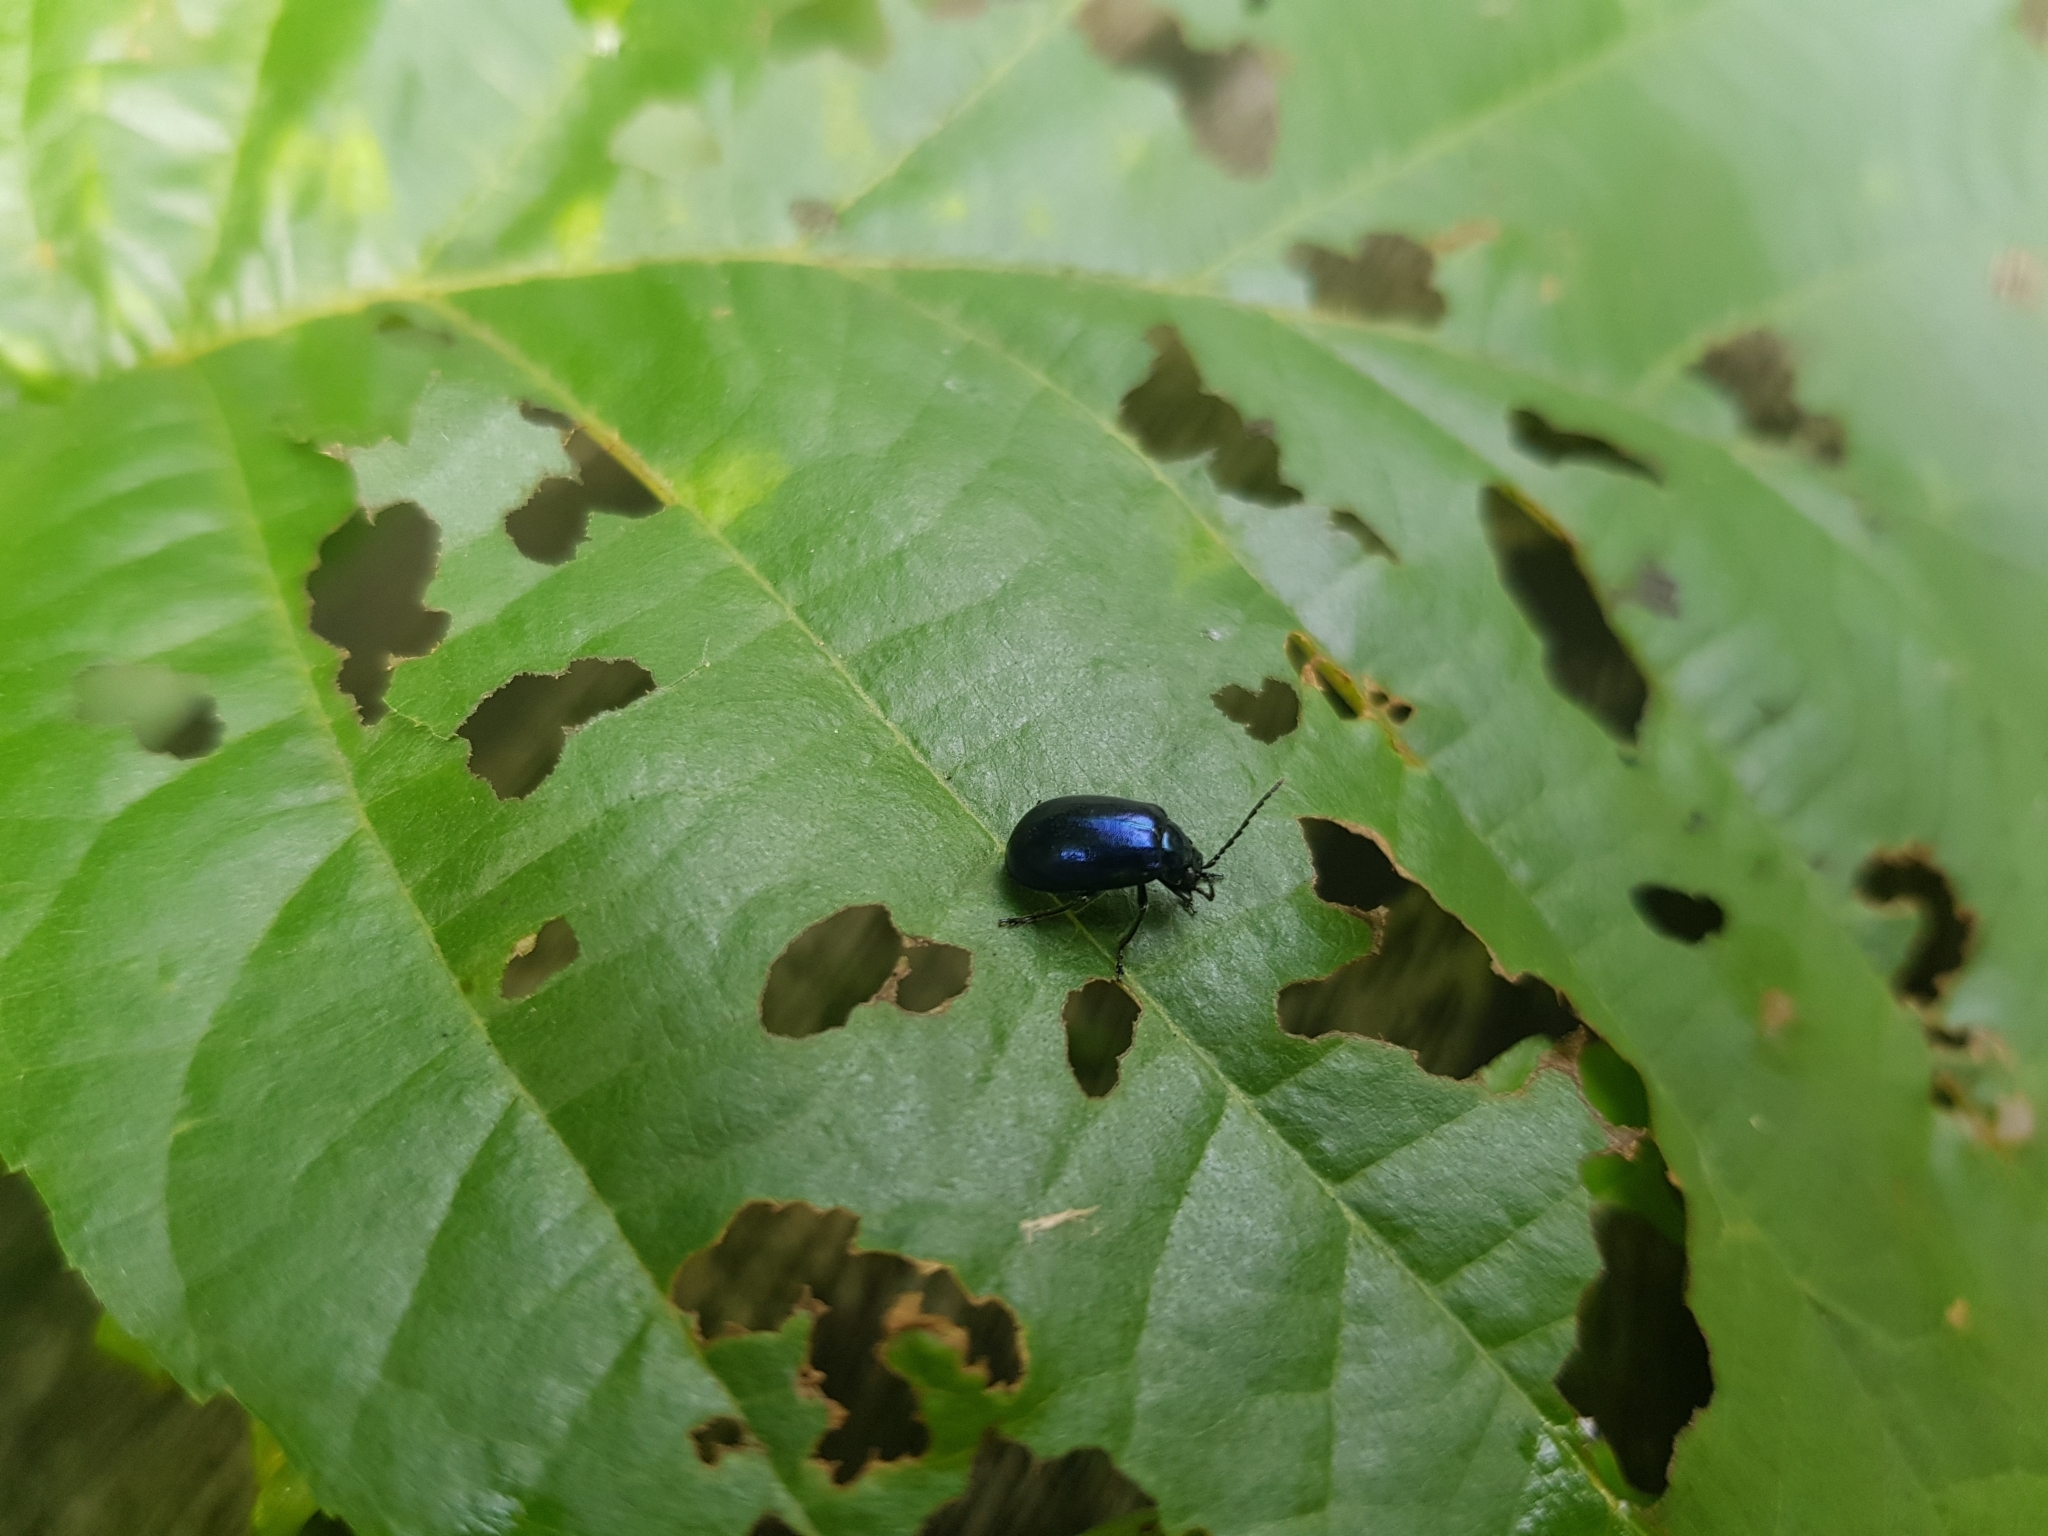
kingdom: Animalia
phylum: Arthropoda
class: Insecta
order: Coleoptera
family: Chrysomelidae
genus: Agelastica
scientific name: Agelastica alni
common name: Alder leaf beetle
